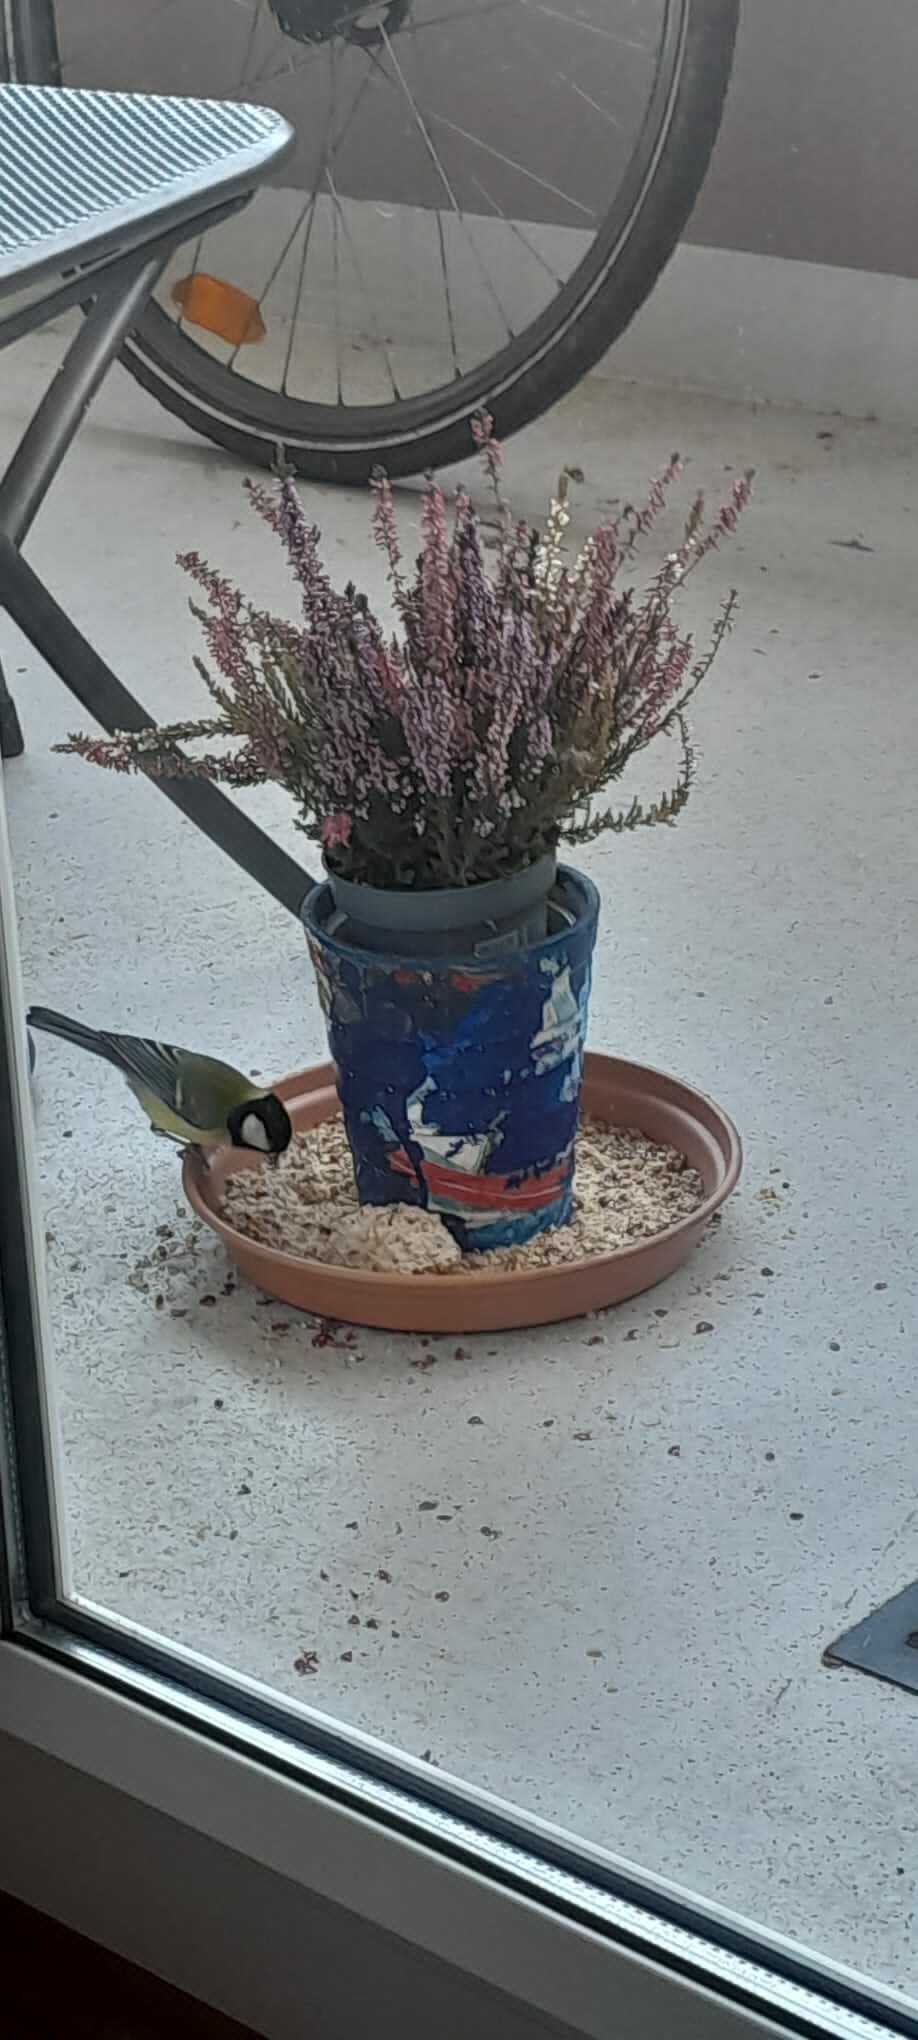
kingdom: Animalia
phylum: Chordata
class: Aves
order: Passeriformes
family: Paridae
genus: Parus
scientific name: Parus major
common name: Great tit
